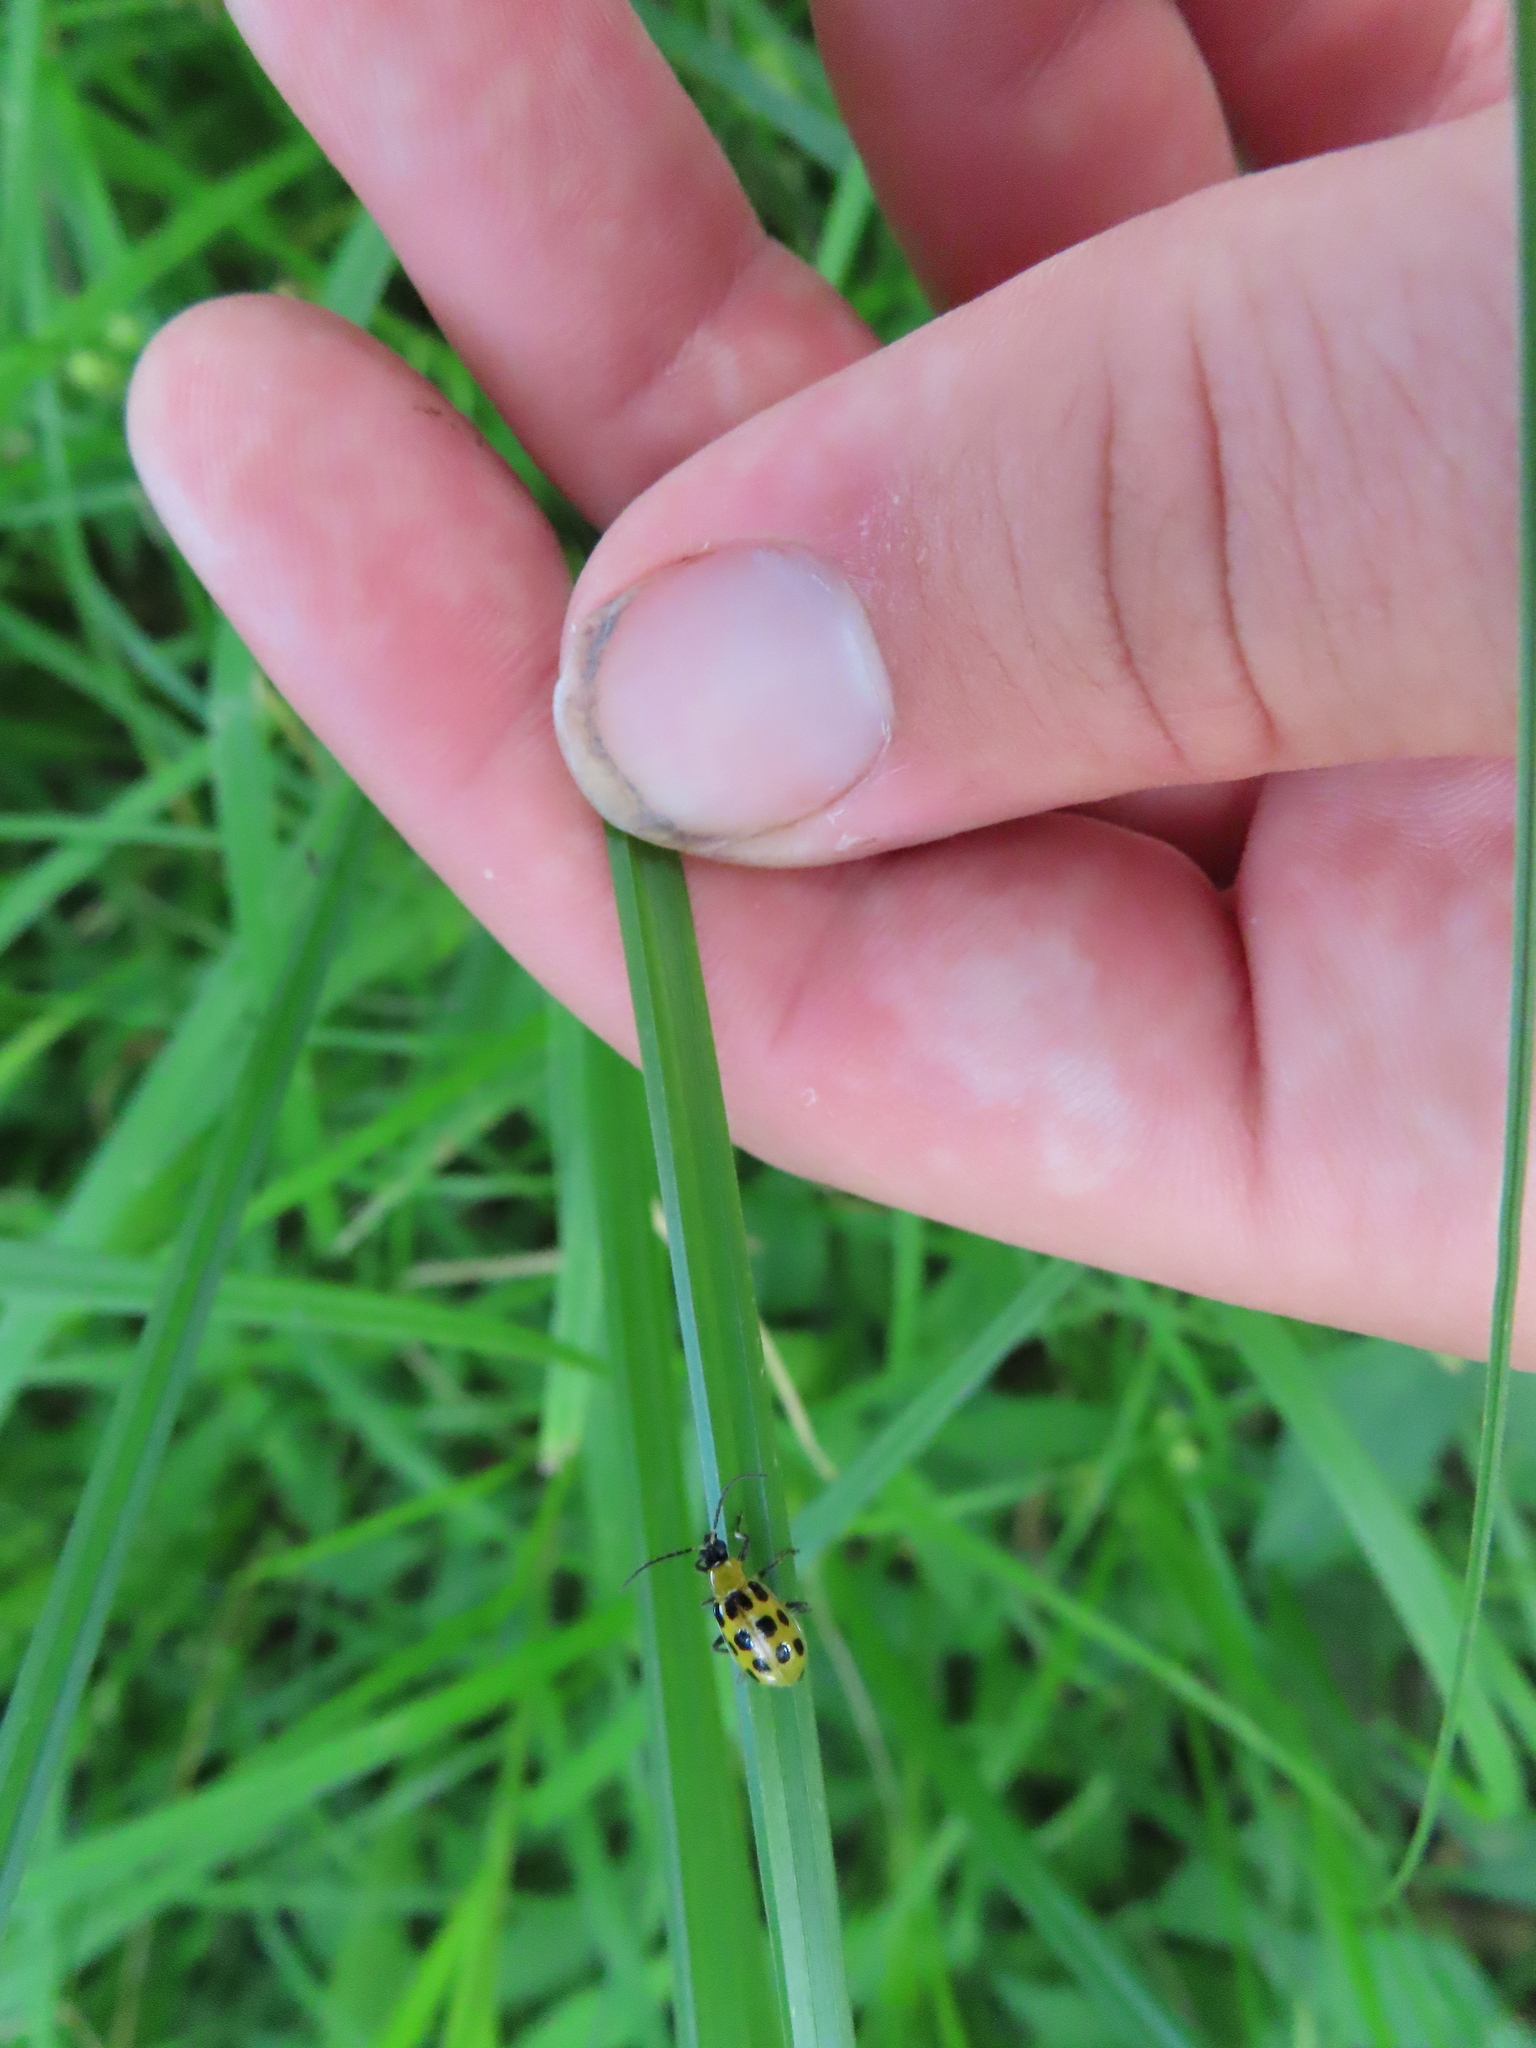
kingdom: Animalia
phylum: Arthropoda
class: Insecta
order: Coleoptera
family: Chrysomelidae
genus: Diabrotica
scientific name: Diabrotica undecimpunctata
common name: Spotted cucumber beetle
